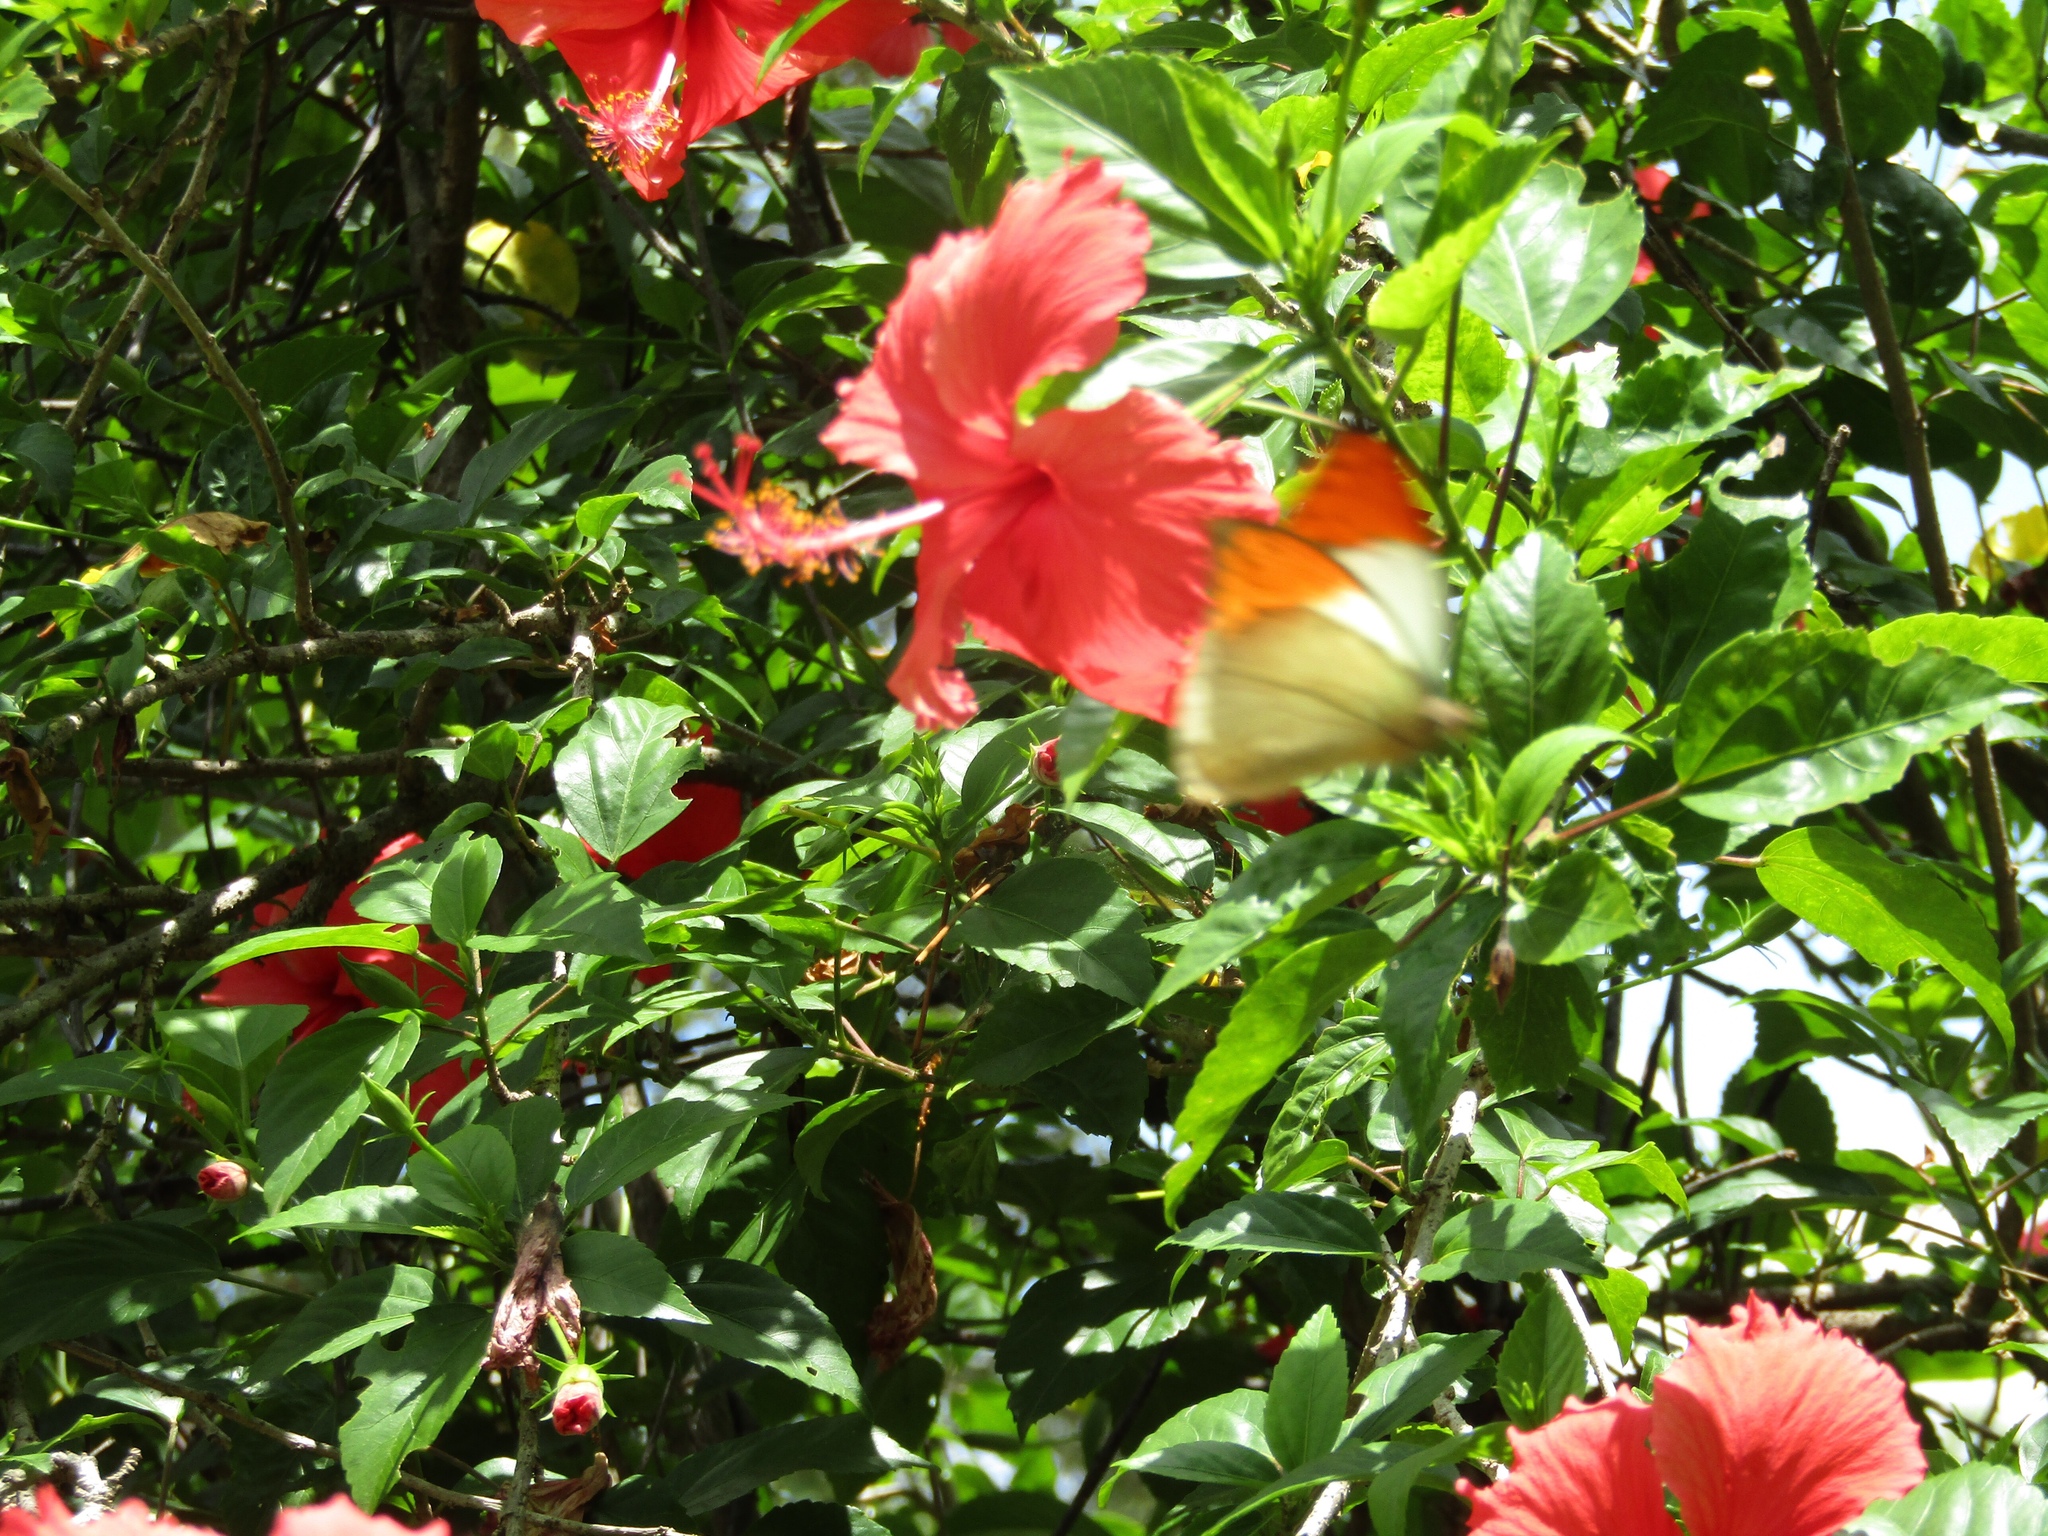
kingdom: Animalia
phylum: Arthropoda
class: Insecta
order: Lepidoptera
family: Pieridae
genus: Hebomoia
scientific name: Hebomoia glaucippe
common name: Great orange tip
